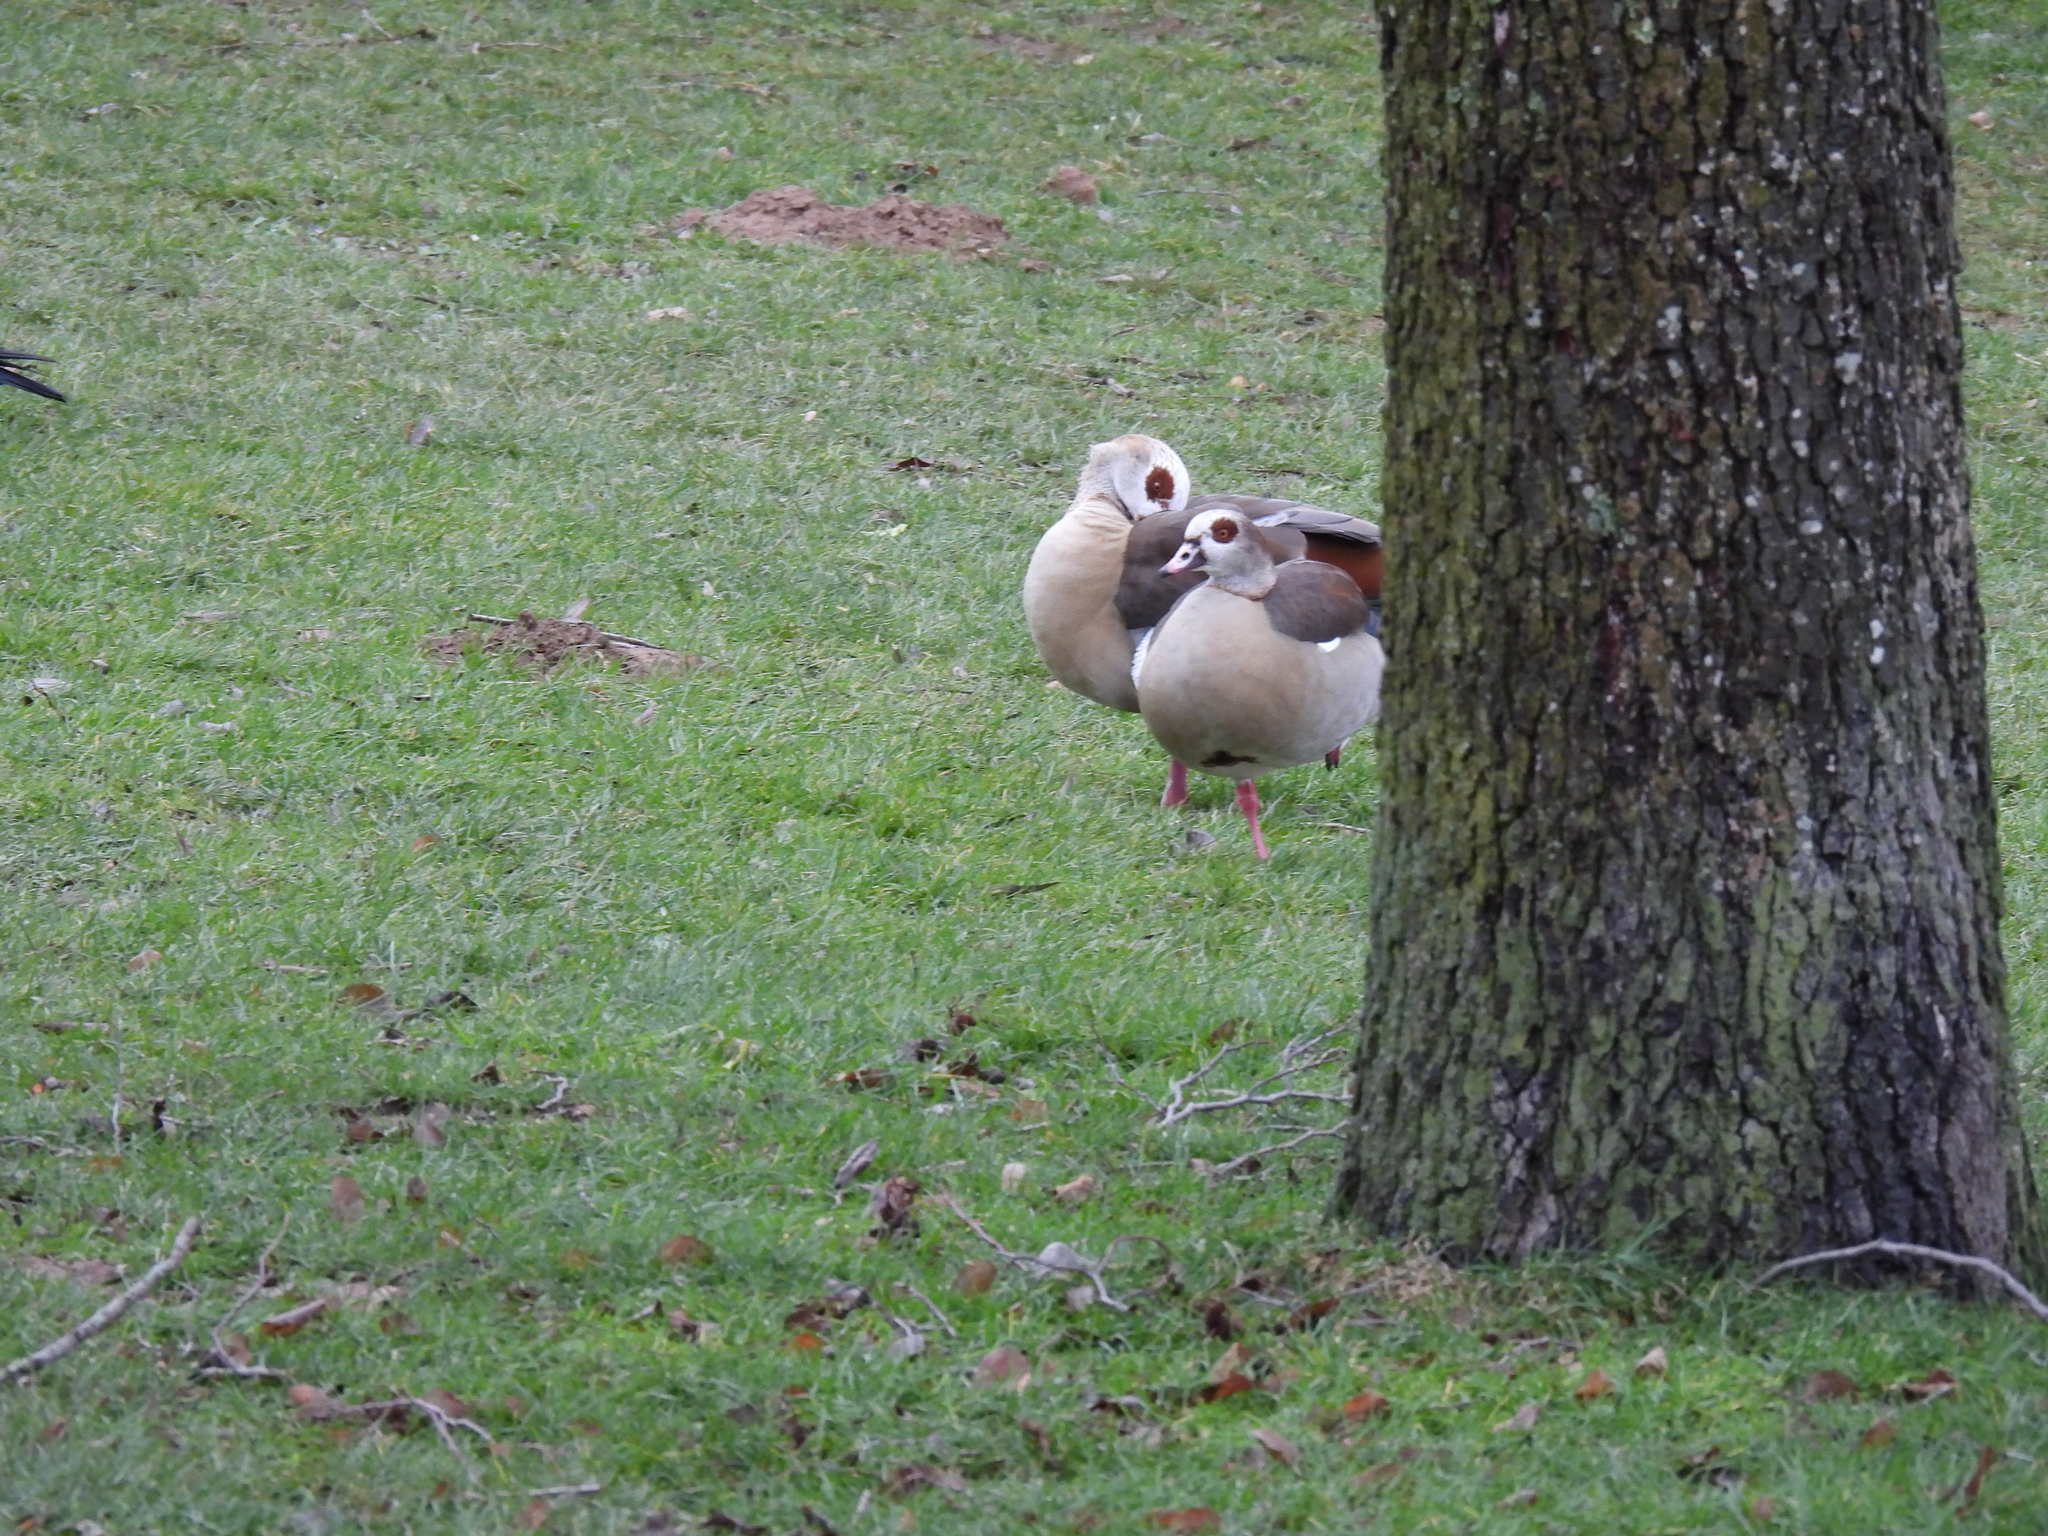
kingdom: Animalia
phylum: Chordata
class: Aves
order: Anseriformes
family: Anatidae
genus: Alopochen
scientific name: Alopochen aegyptiaca
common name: Egyptian goose
